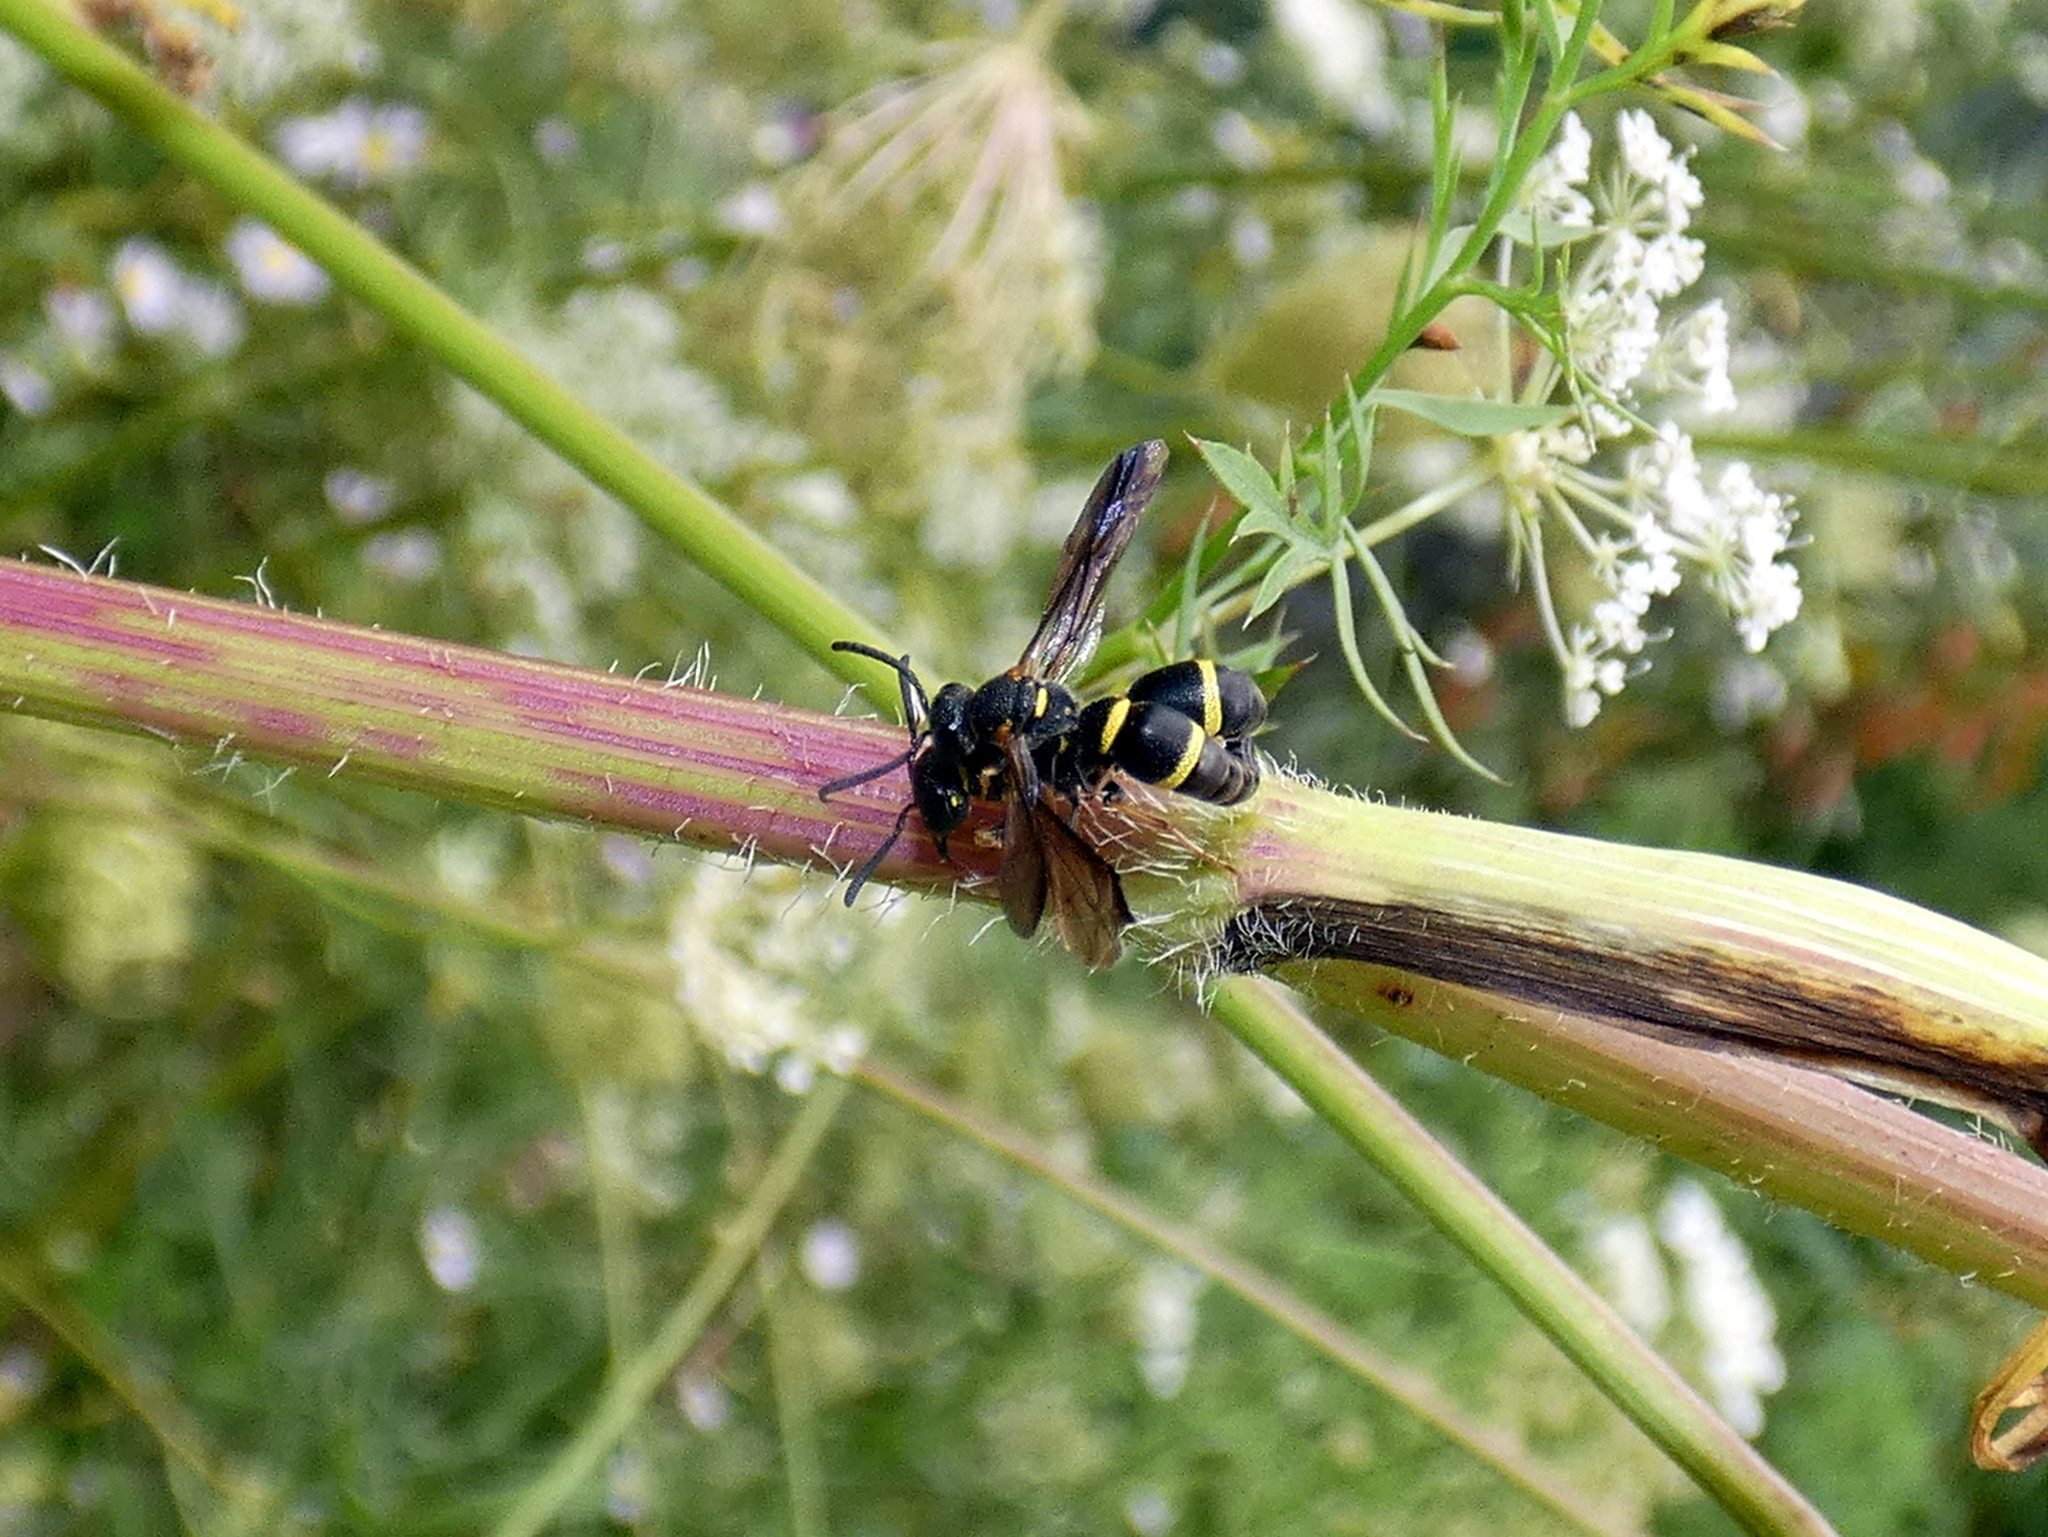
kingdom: Animalia
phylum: Arthropoda
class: Insecta
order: Hymenoptera
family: Eumenidae
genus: Parancistrocerus
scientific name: Parancistrocerus perennis
